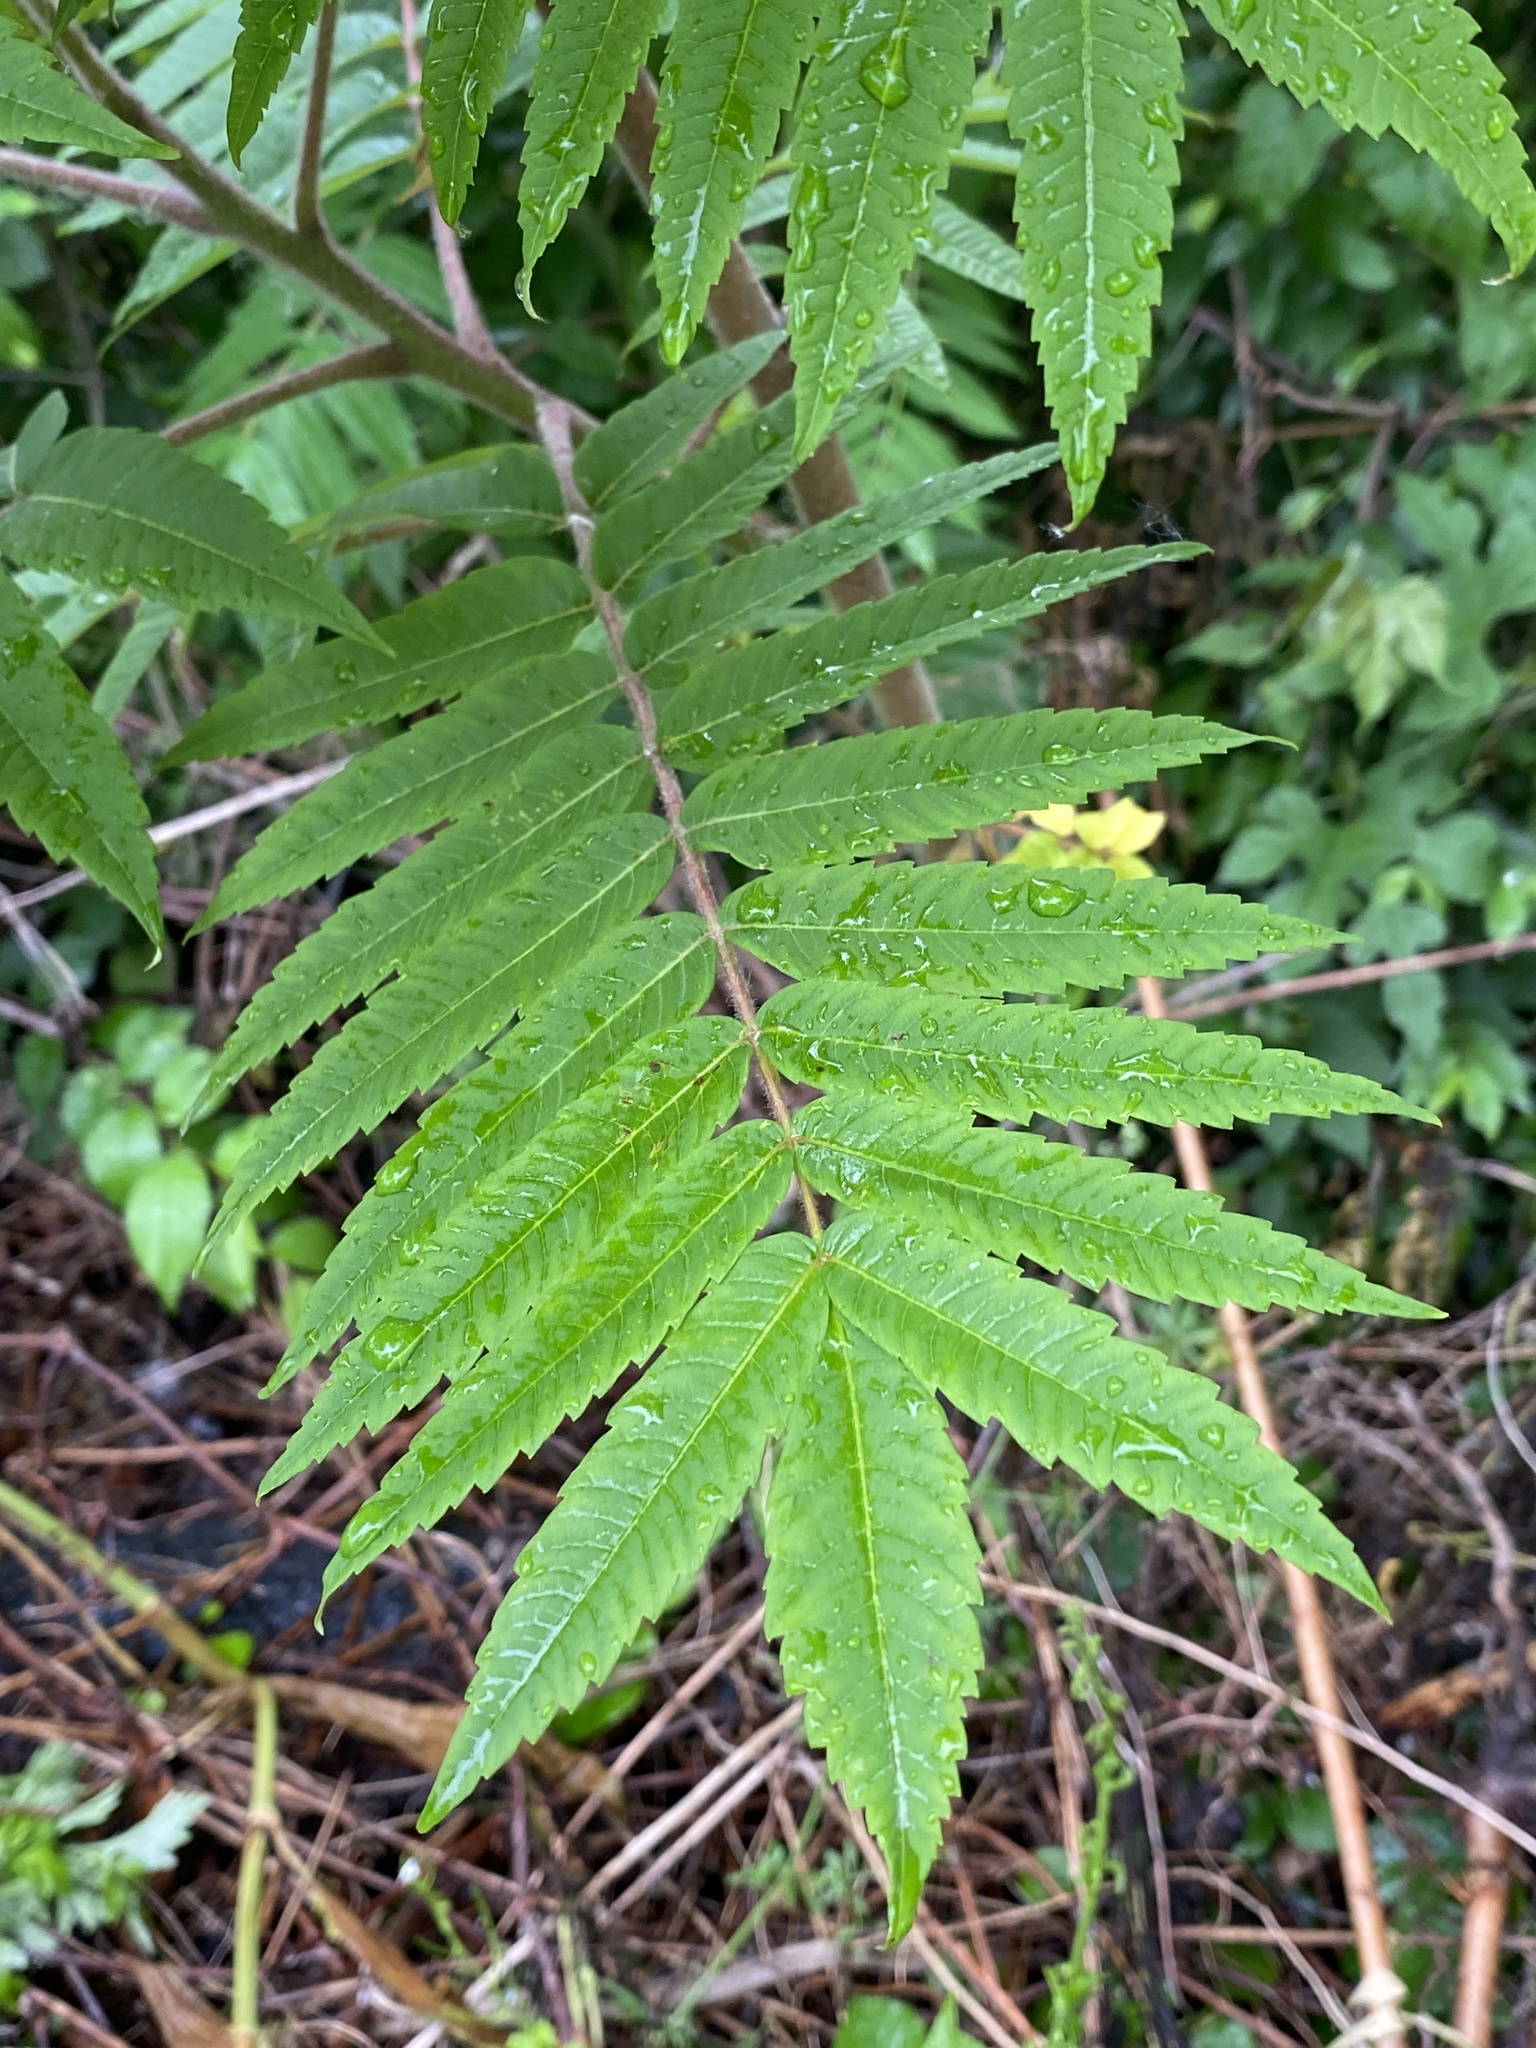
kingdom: Plantae
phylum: Tracheophyta
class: Magnoliopsida
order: Sapindales
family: Anacardiaceae
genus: Rhus
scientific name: Rhus typhina
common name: Staghorn sumac
